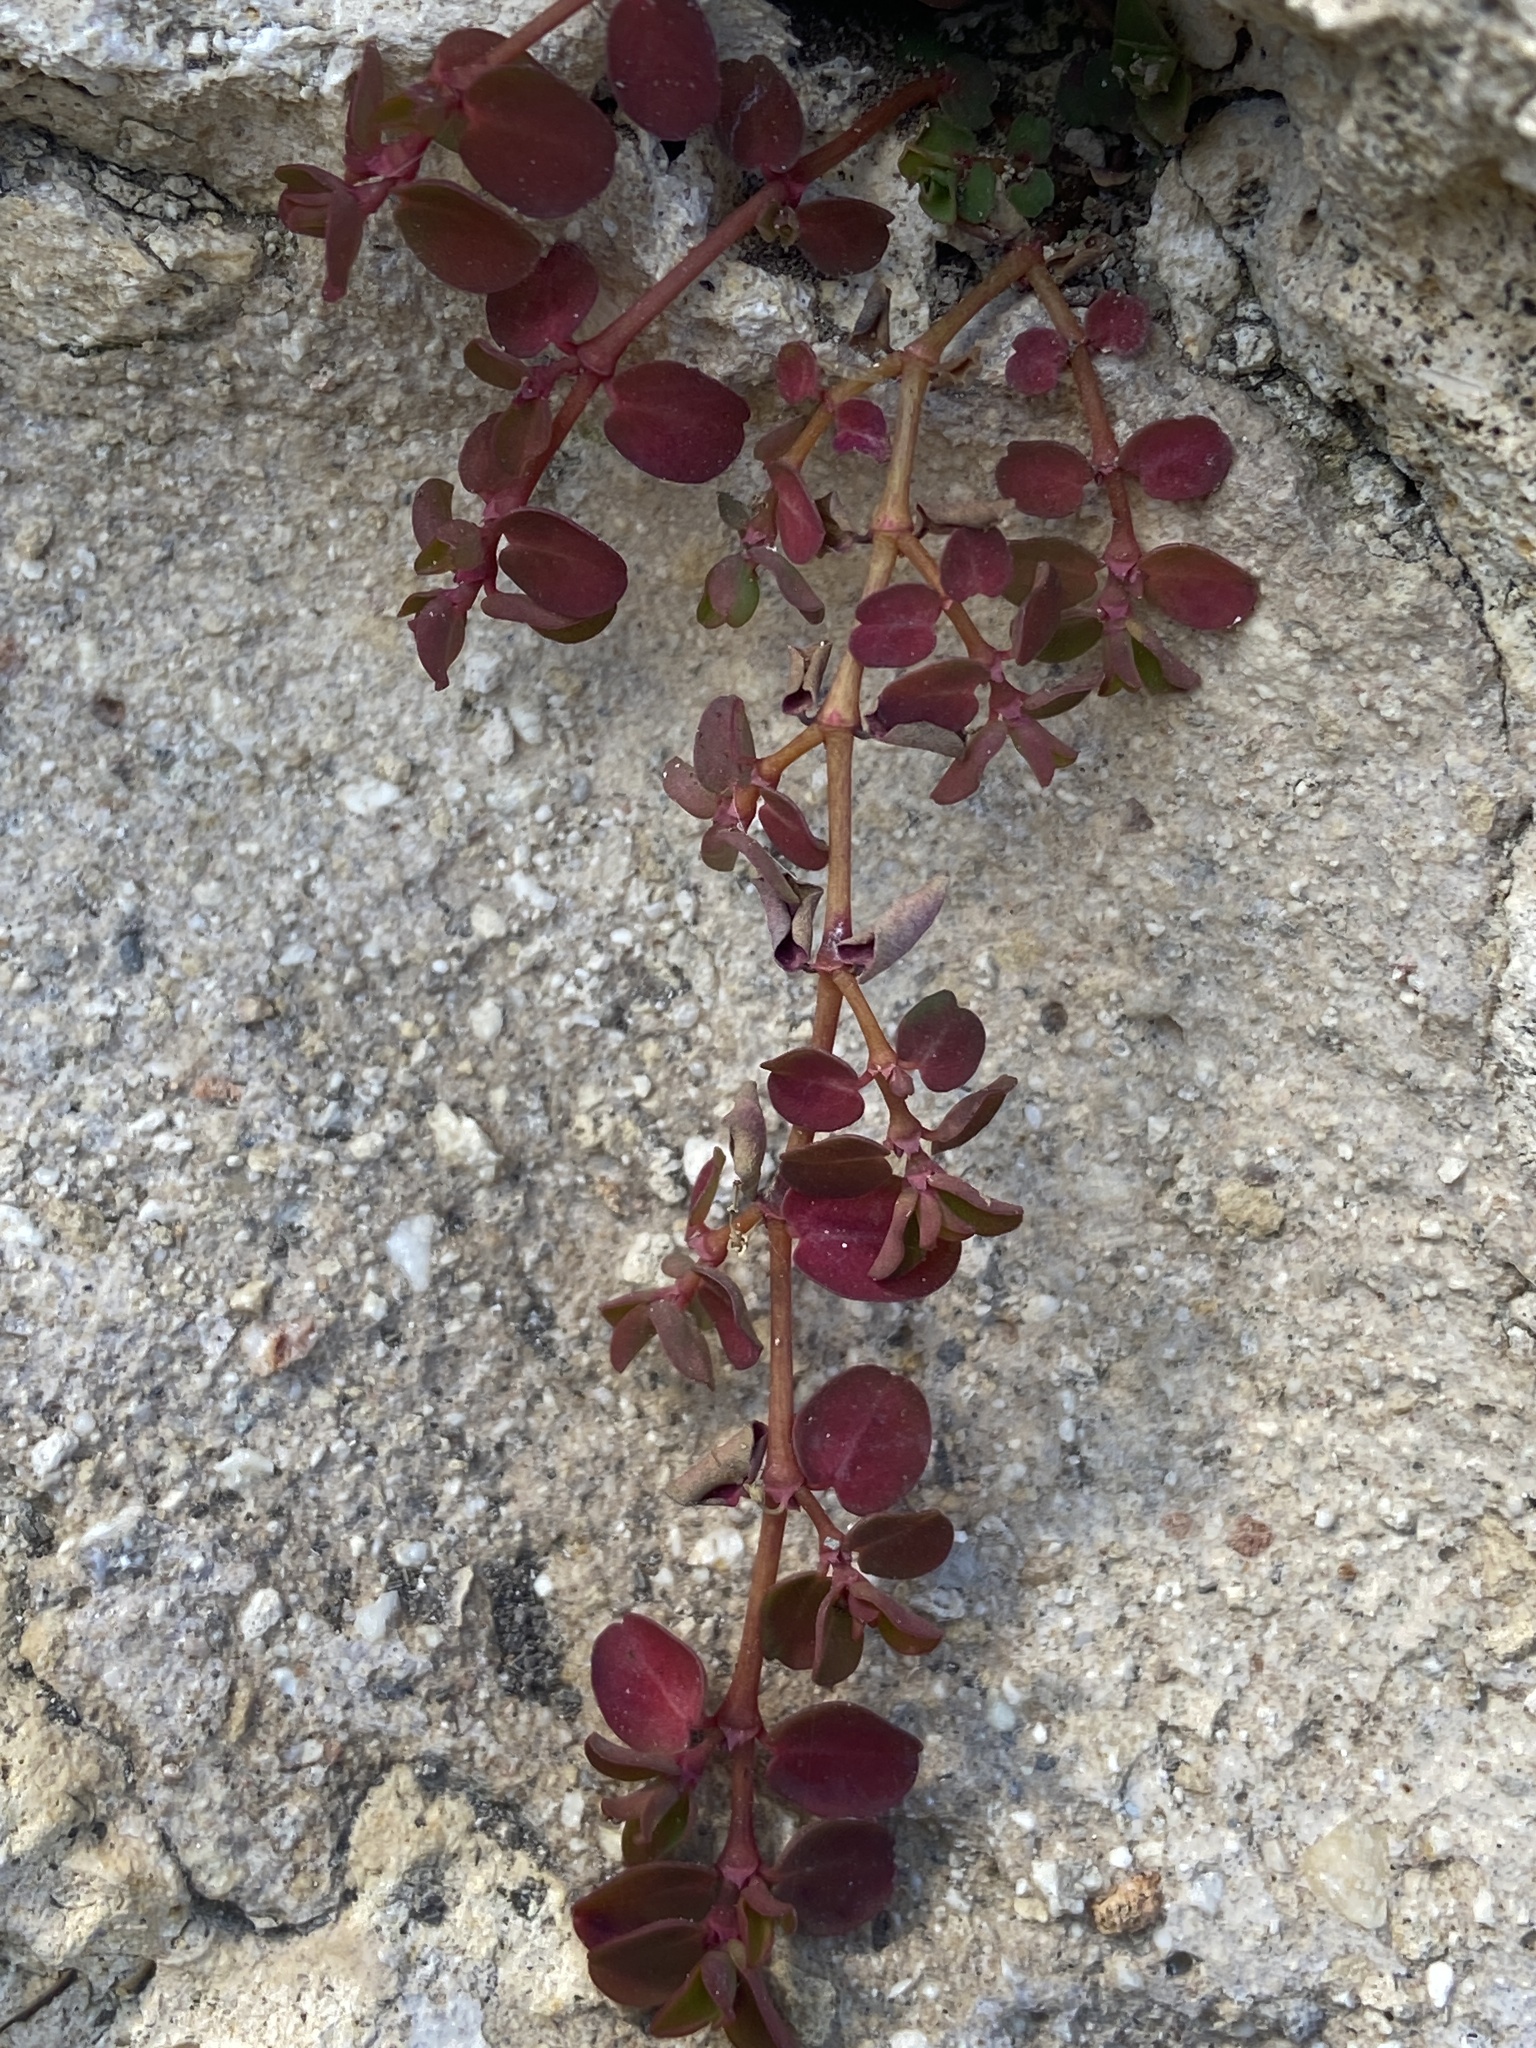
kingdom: Plantae
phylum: Tracheophyta
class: Magnoliopsida
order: Malpighiales
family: Euphorbiaceae
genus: Euphorbia
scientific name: Euphorbia serpens
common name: Matted sandmat
